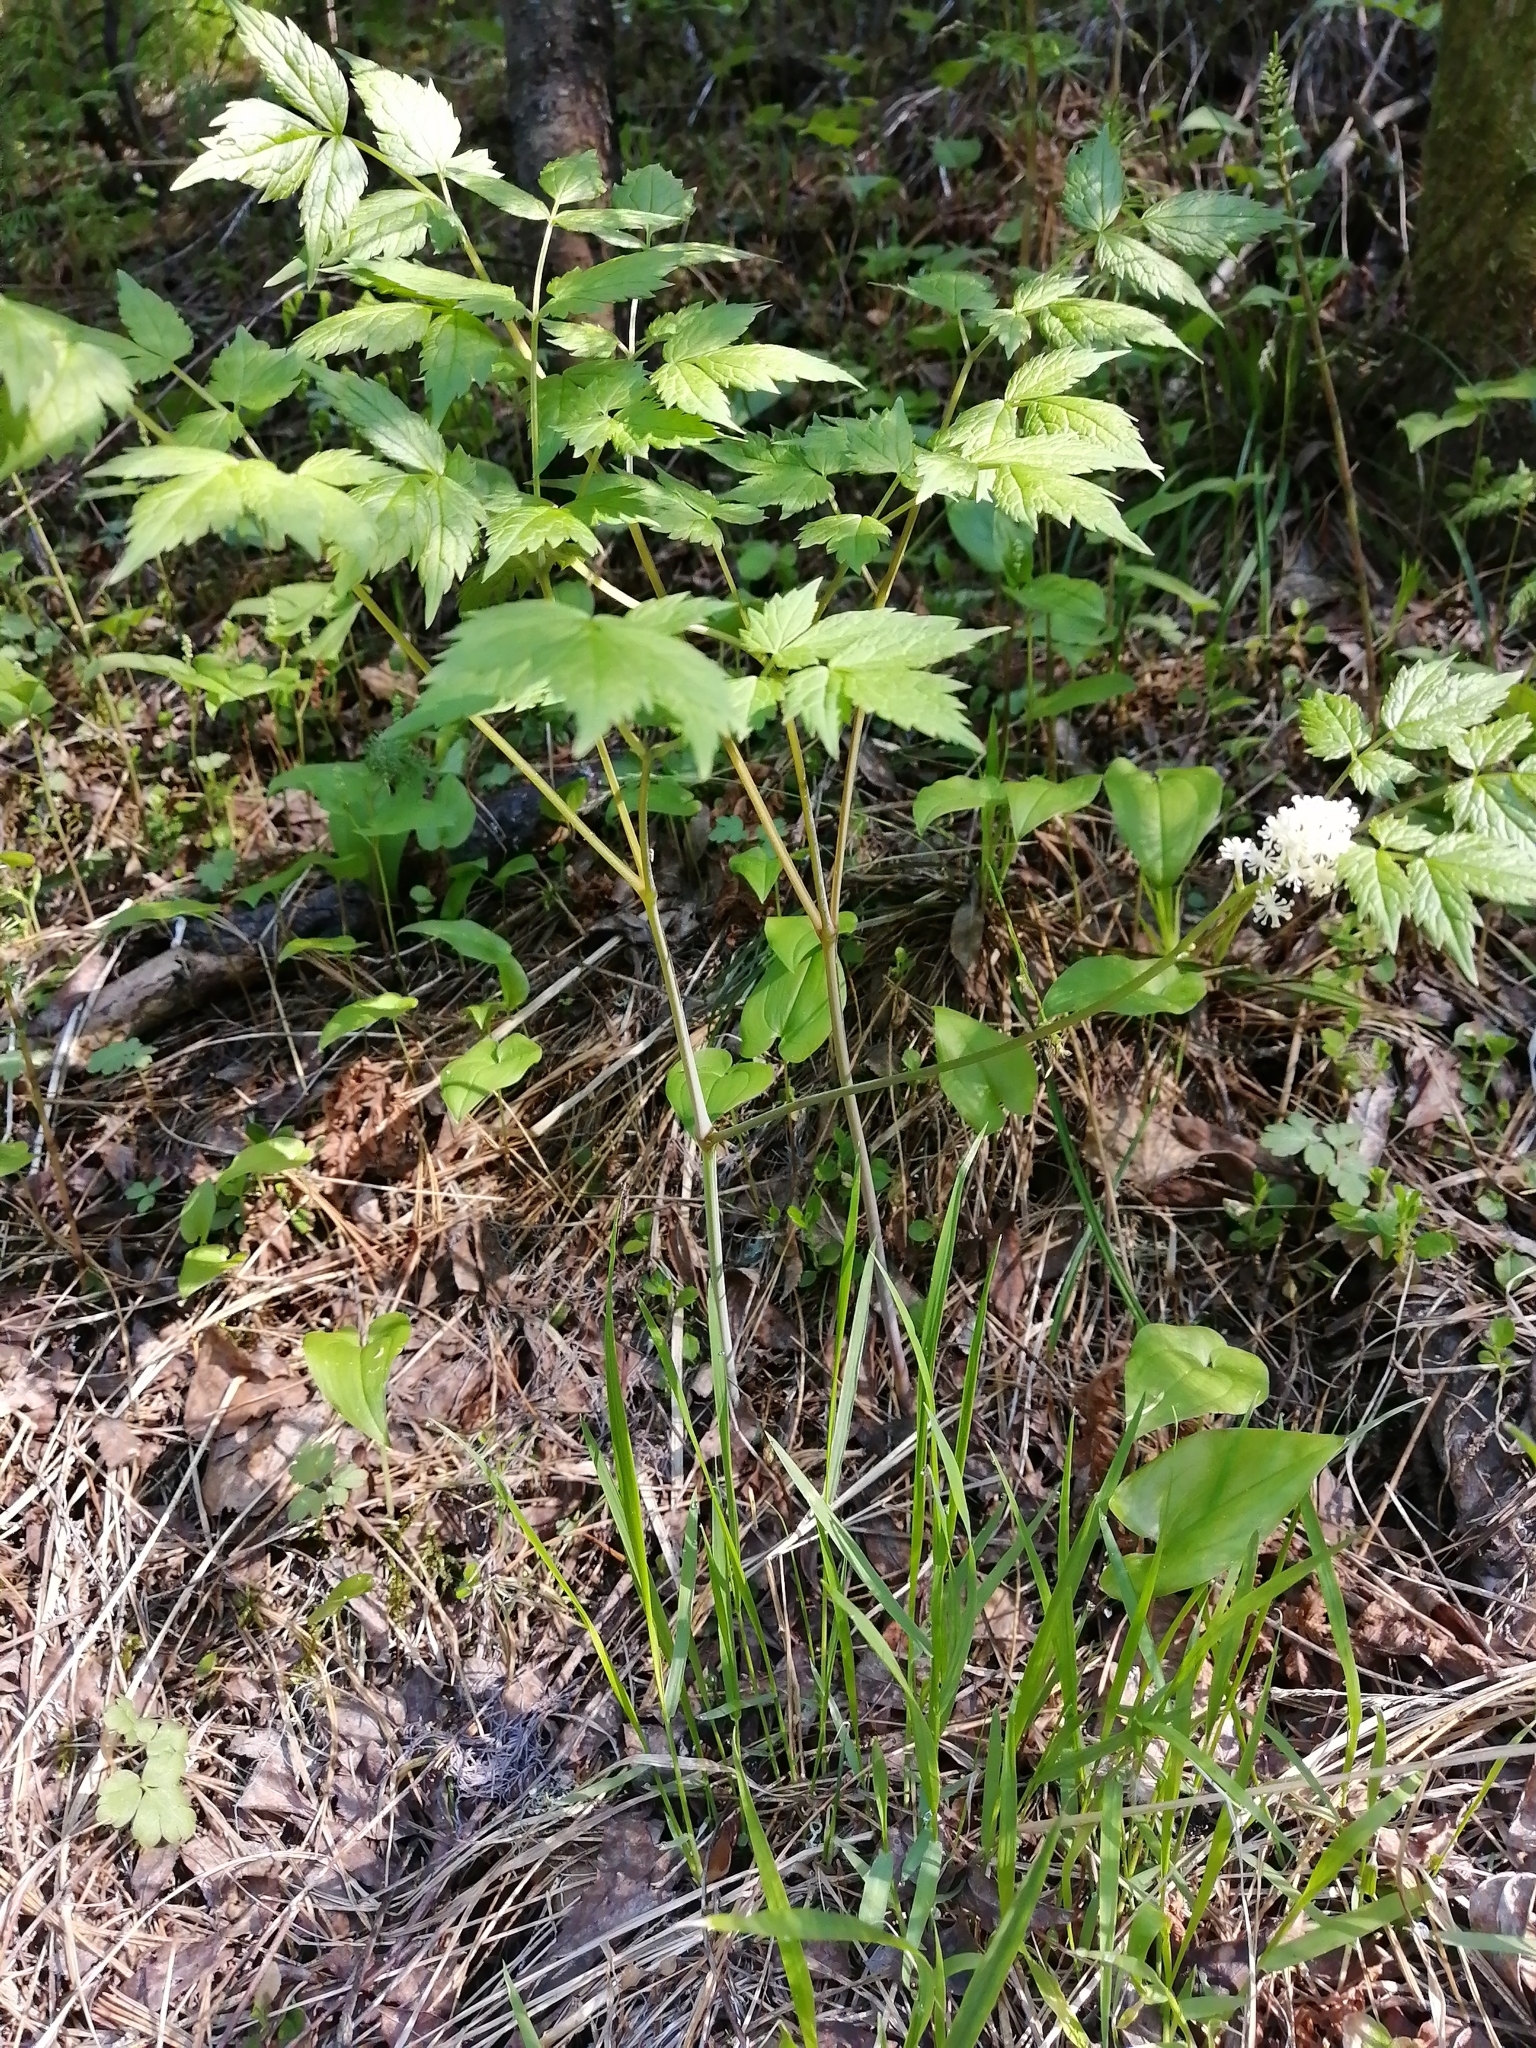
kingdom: Plantae
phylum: Tracheophyta
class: Magnoliopsida
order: Ranunculales
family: Ranunculaceae
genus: Actaea
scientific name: Actaea erythrocarpa
